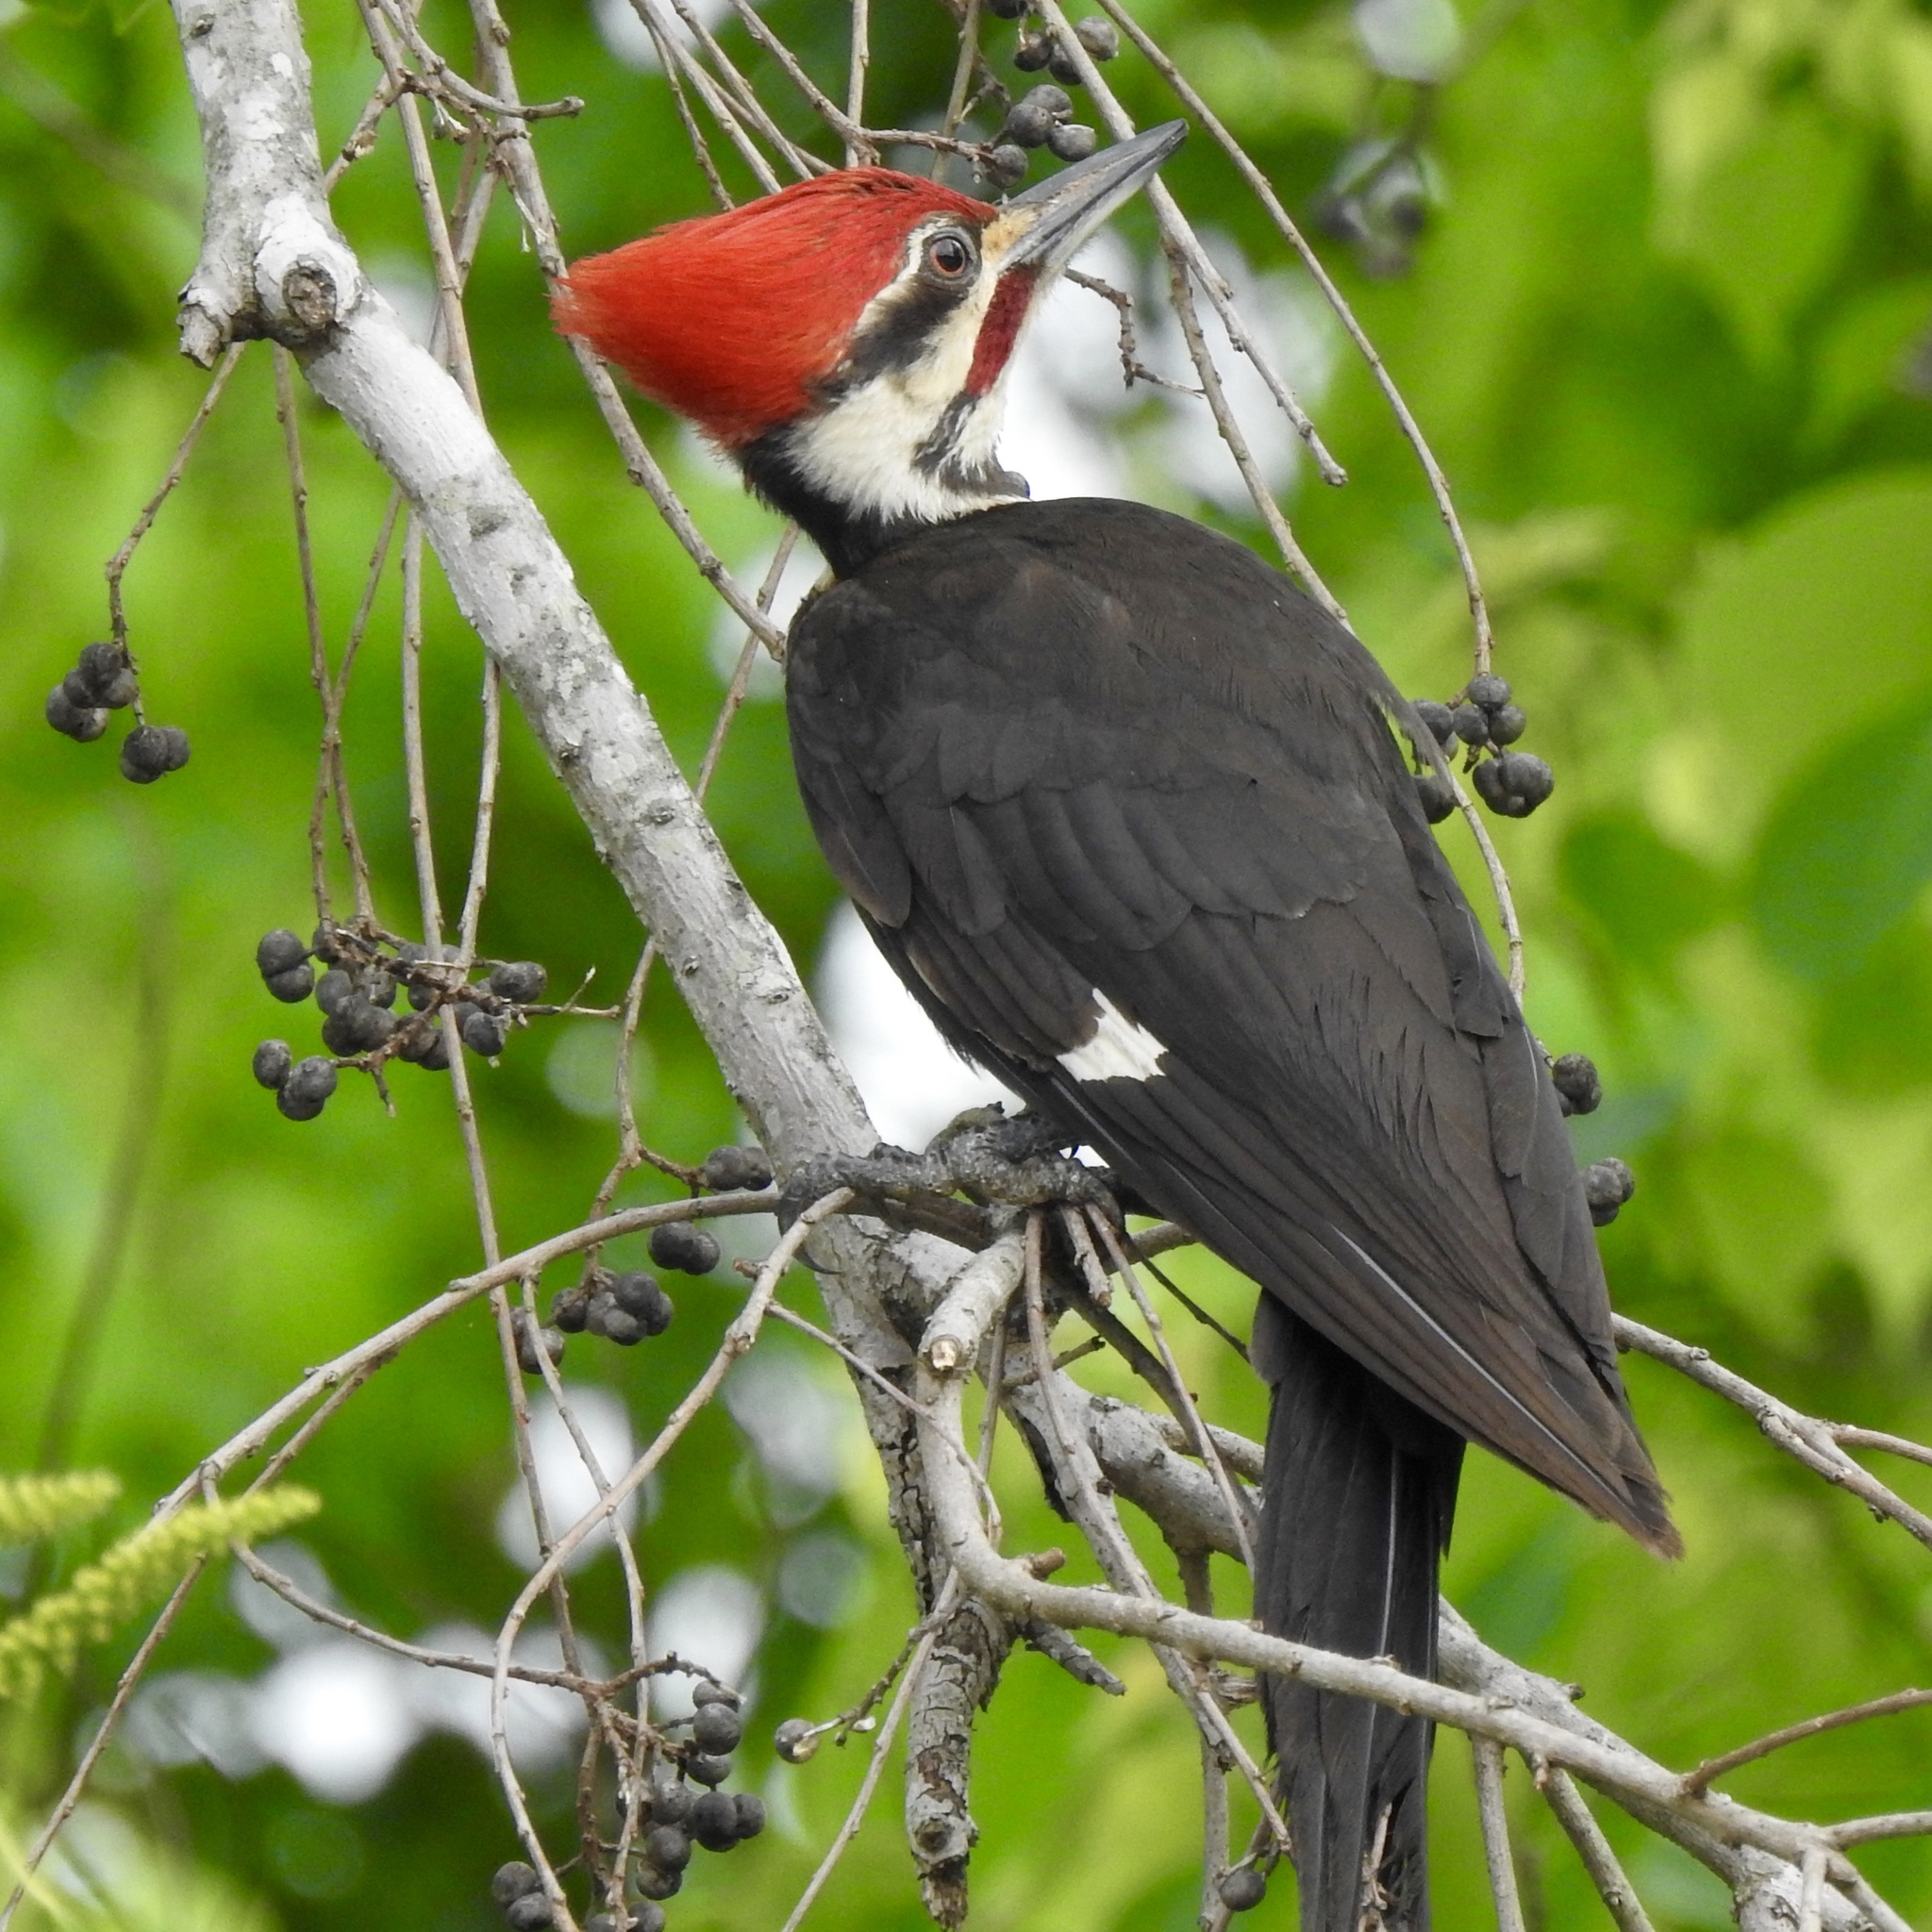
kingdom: Animalia
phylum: Chordata
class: Aves
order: Piciformes
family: Picidae
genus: Dryocopus
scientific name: Dryocopus pileatus
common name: Pileated woodpecker
